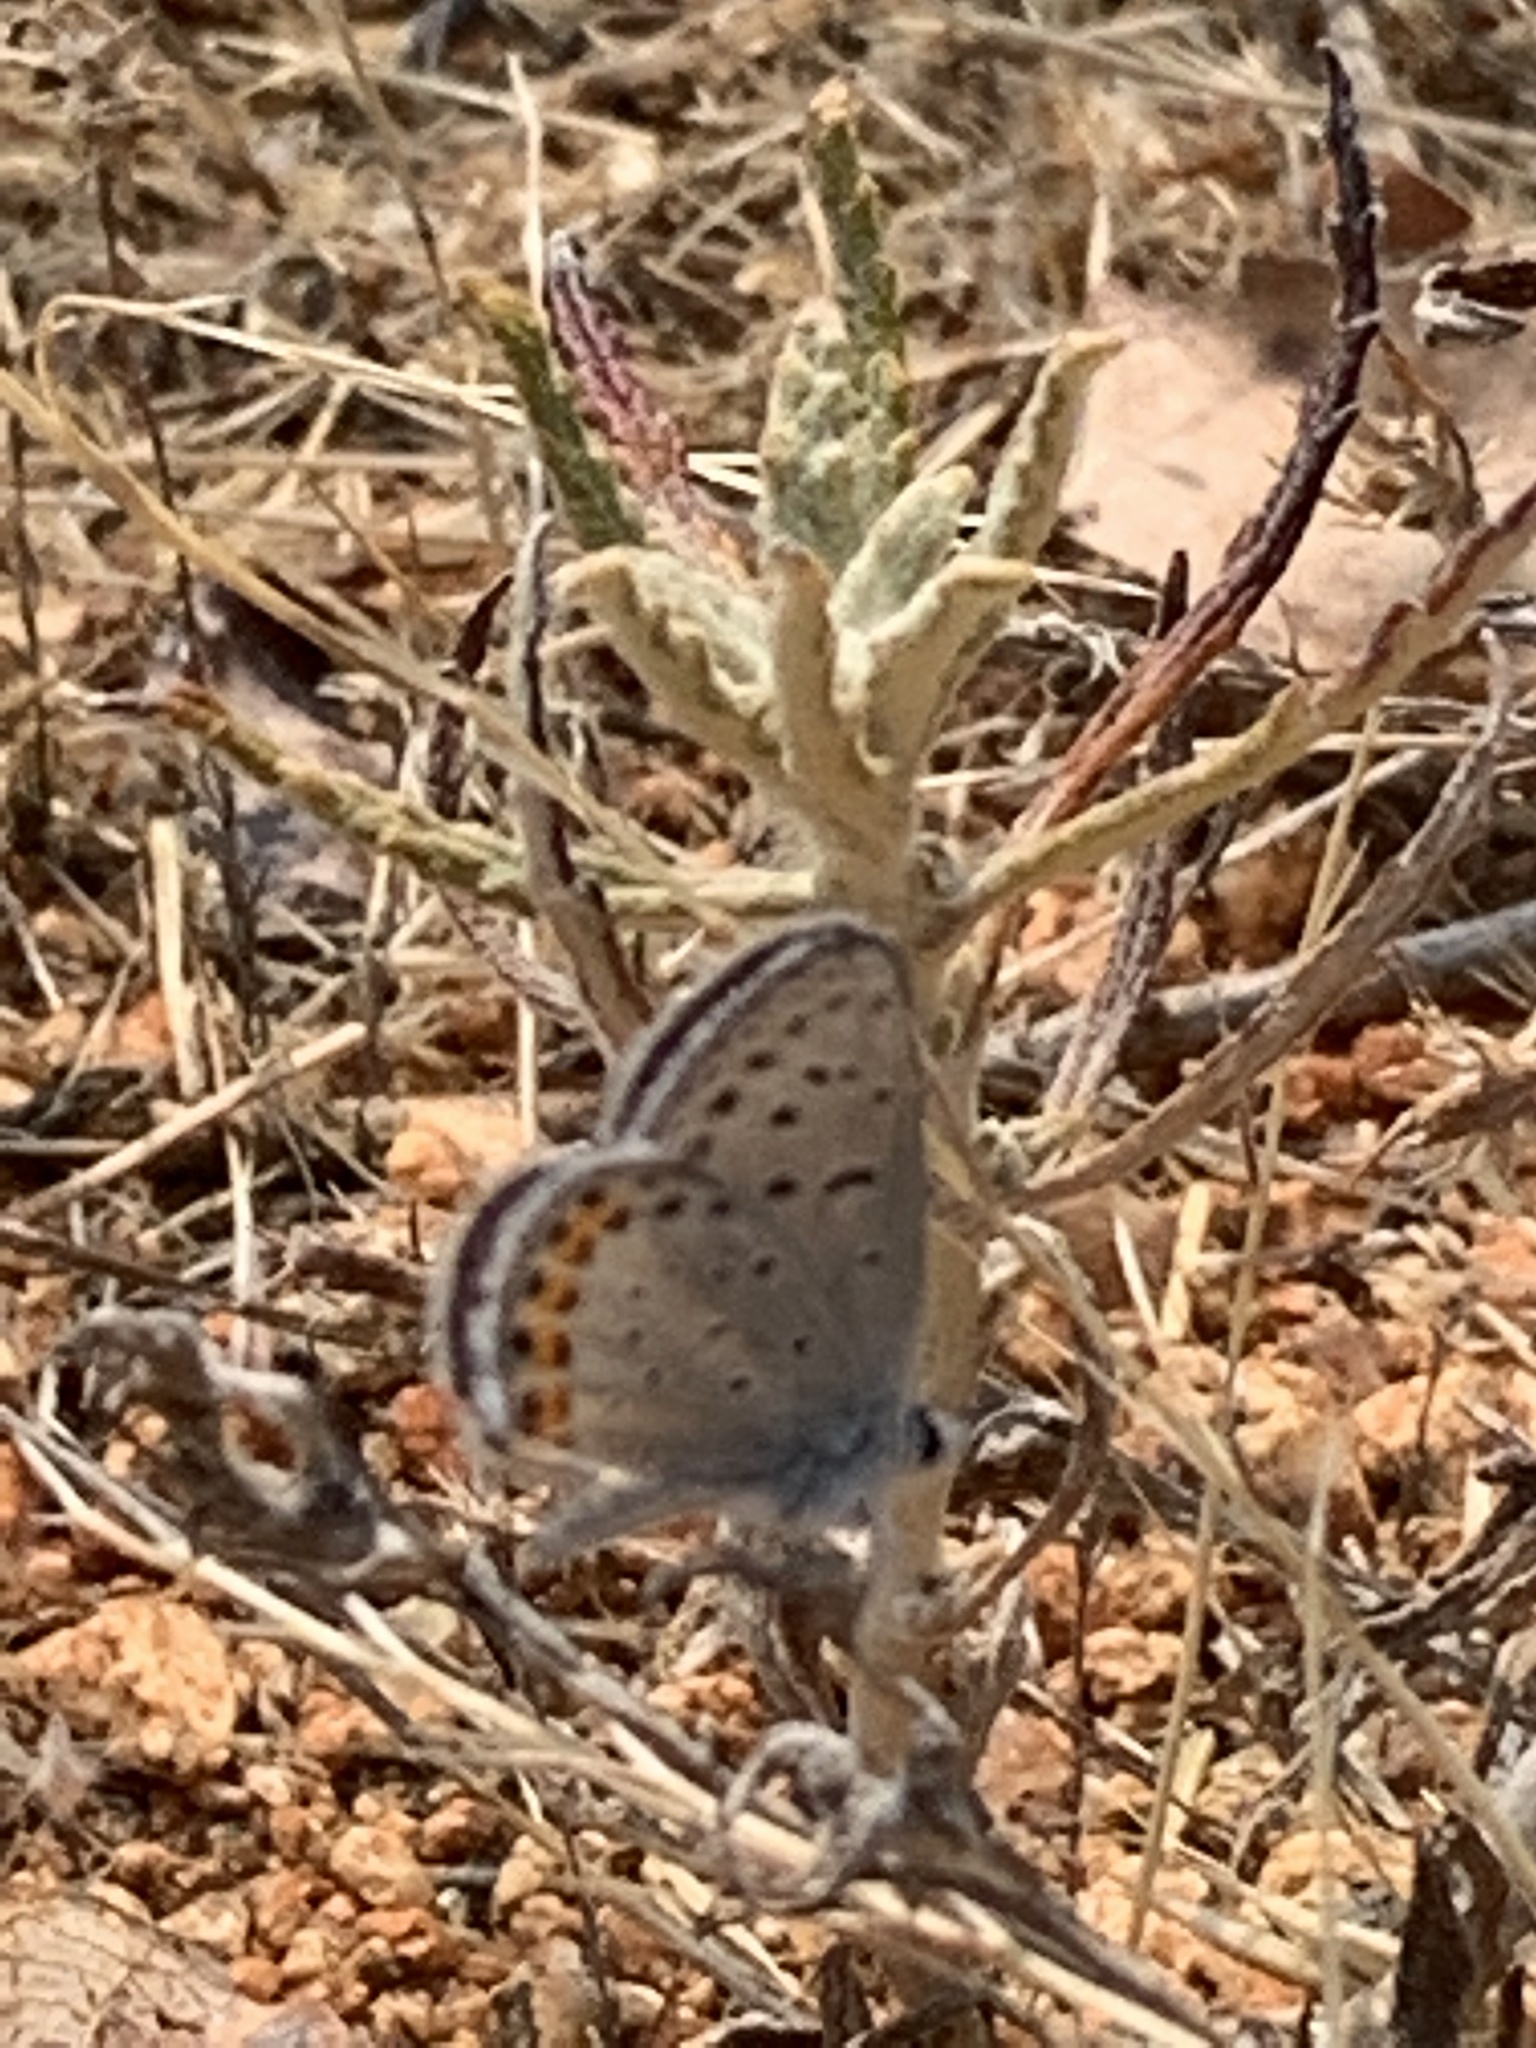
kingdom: Animalia
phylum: Arthropoda
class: Insecta
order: Lepidoptera
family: Lycaenidae
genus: Icaricia
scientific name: Icaricia acmon
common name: Acmon blue
